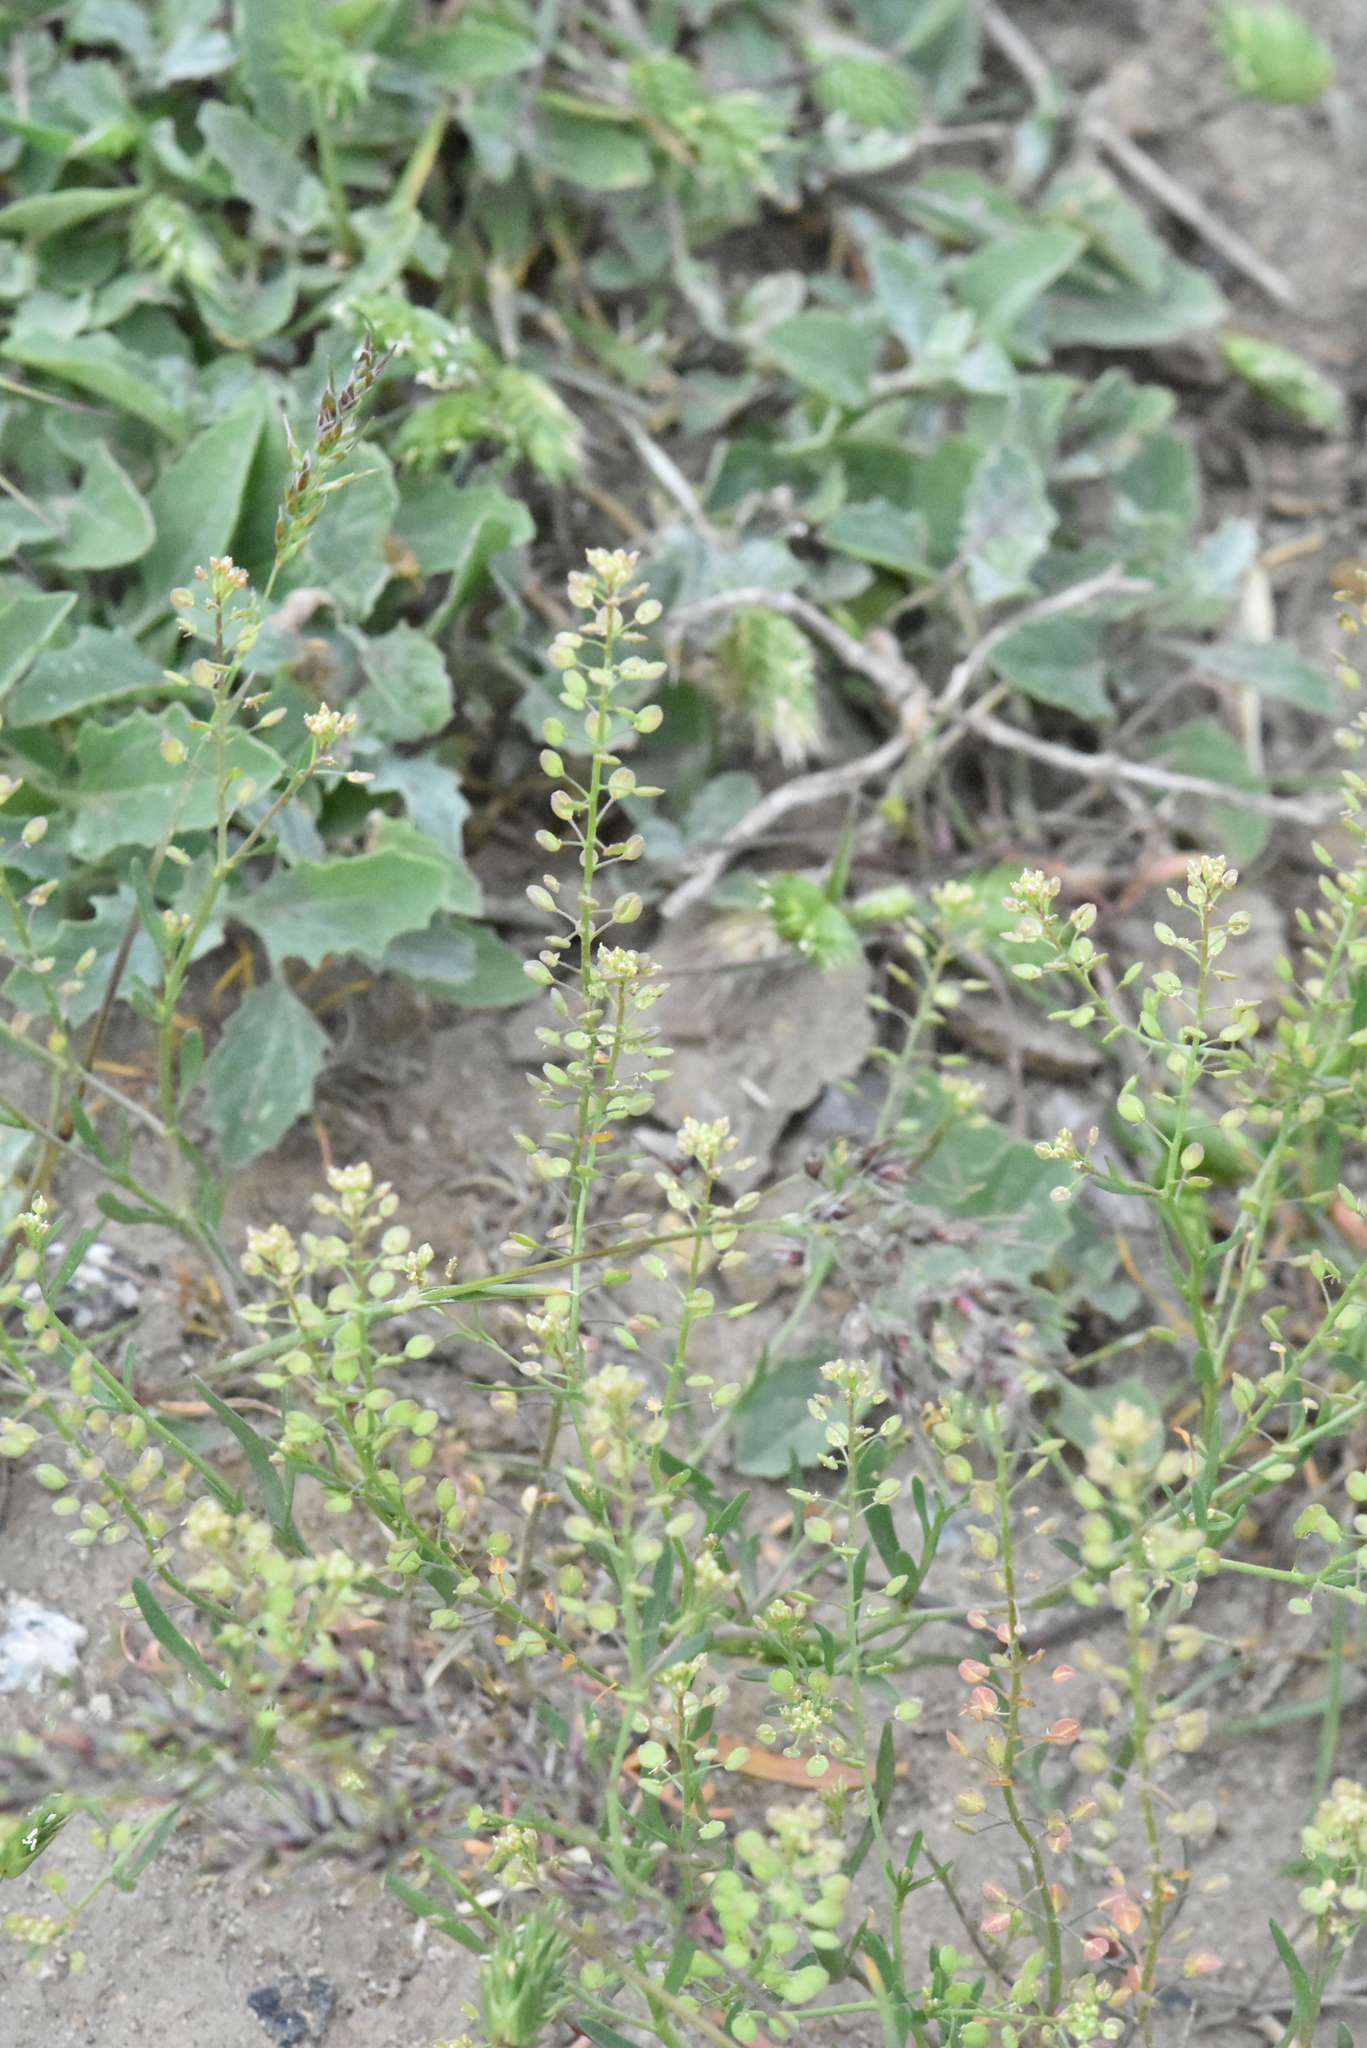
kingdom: Plantae
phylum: Tracheophyta
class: Magnoliopsida
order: Brassicales
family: Brassicaceae
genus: Lepidium
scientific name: Lepidium ruderale
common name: Narrow-leaved pepperwort
